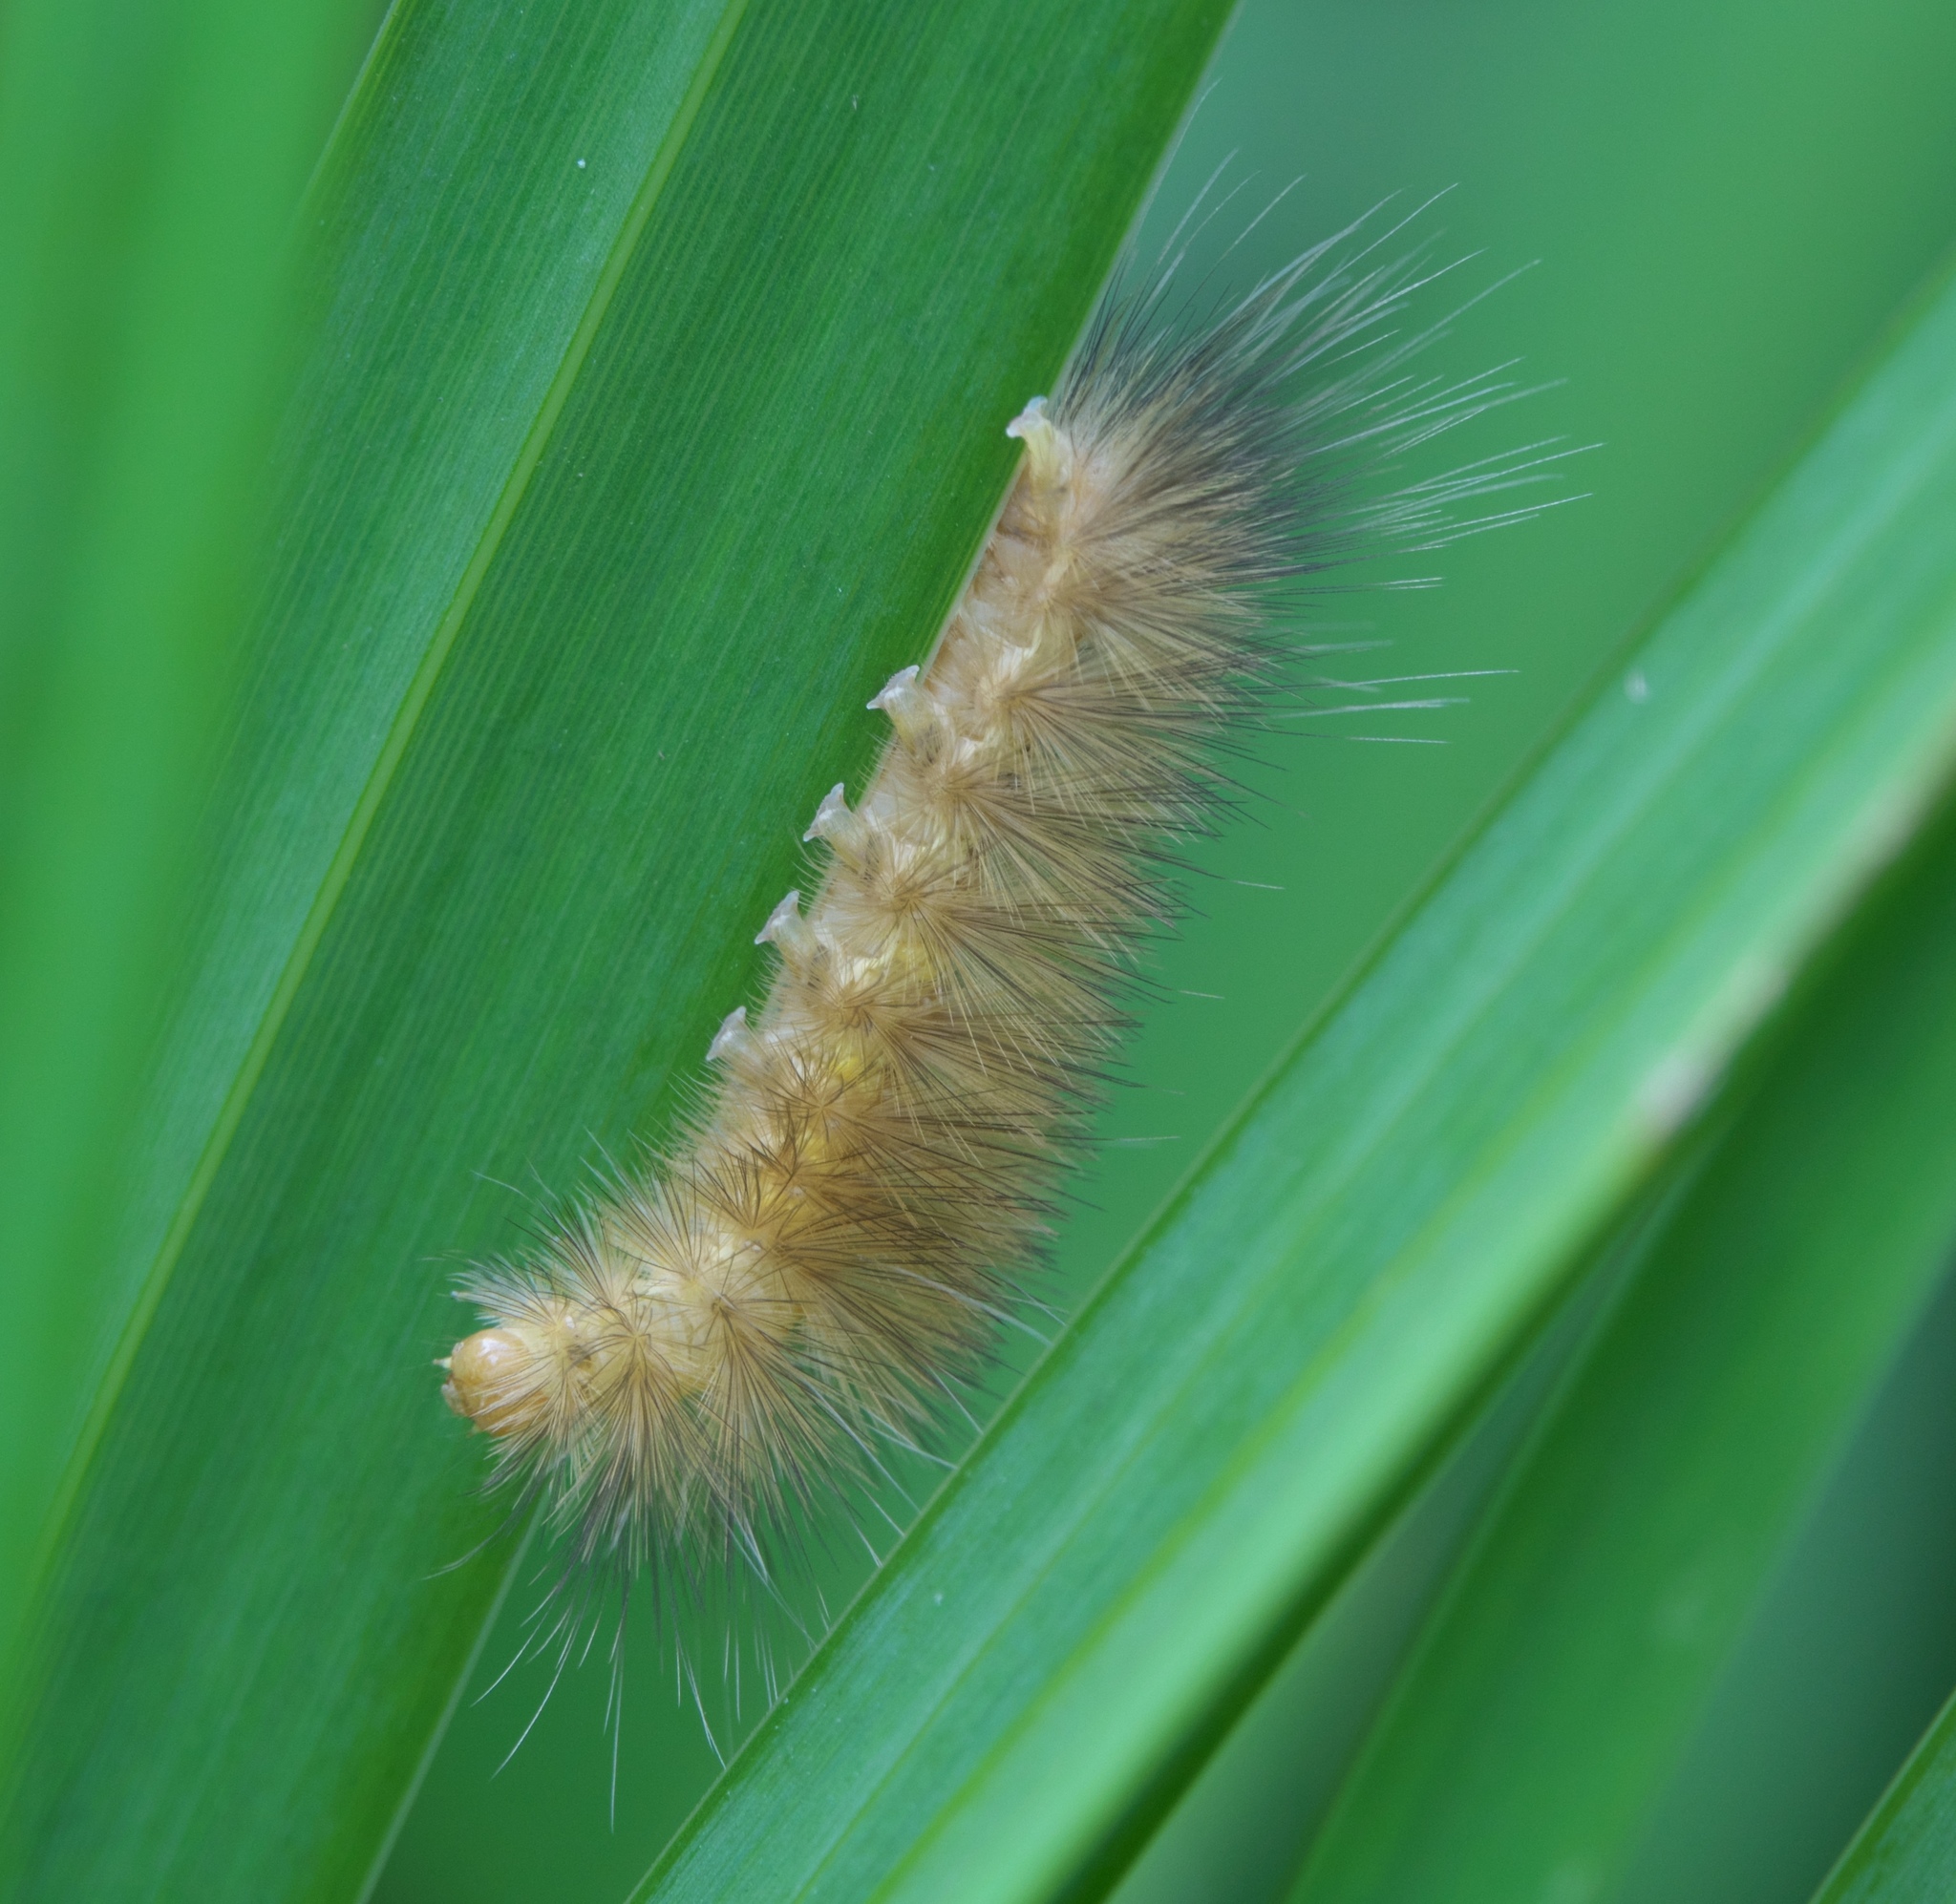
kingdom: Animalia
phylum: Arthropoda
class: Insecta
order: Lepidoptera
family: Erebidae
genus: Spilosoma
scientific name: Spilosoma virginica
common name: Virginia tiger moth
